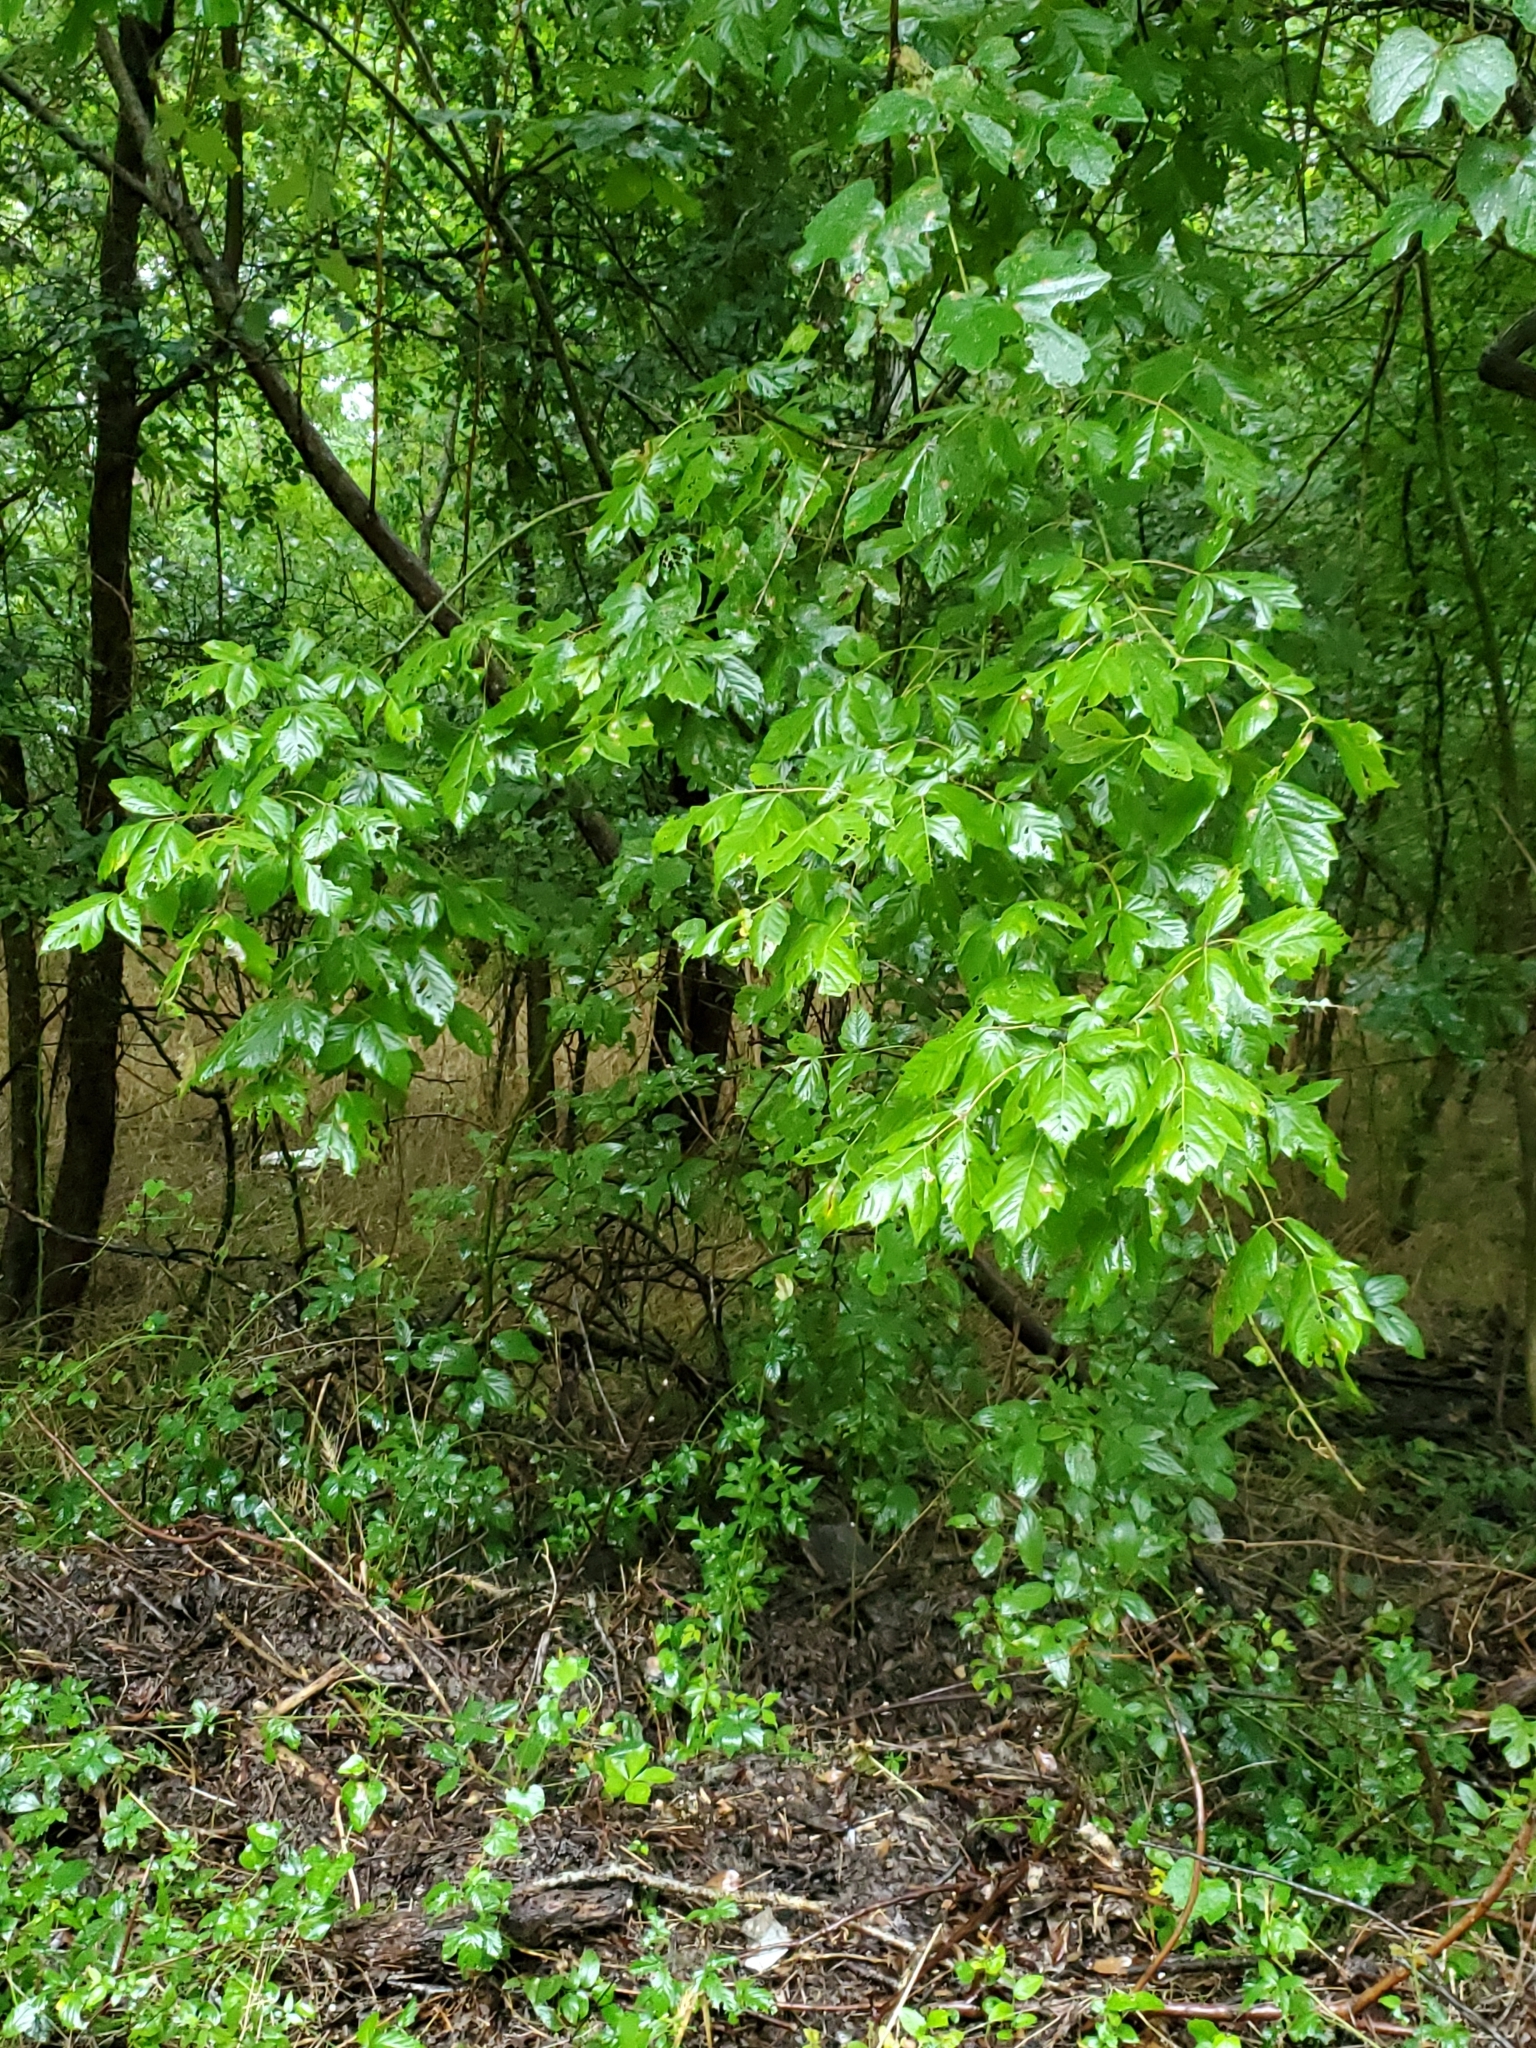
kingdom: Plantae
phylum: Tracheophyta
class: Magnoliopsida
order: Sapindales
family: Sapindaceae
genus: Acer
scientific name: Acer negundo
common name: Ashleaf maple
